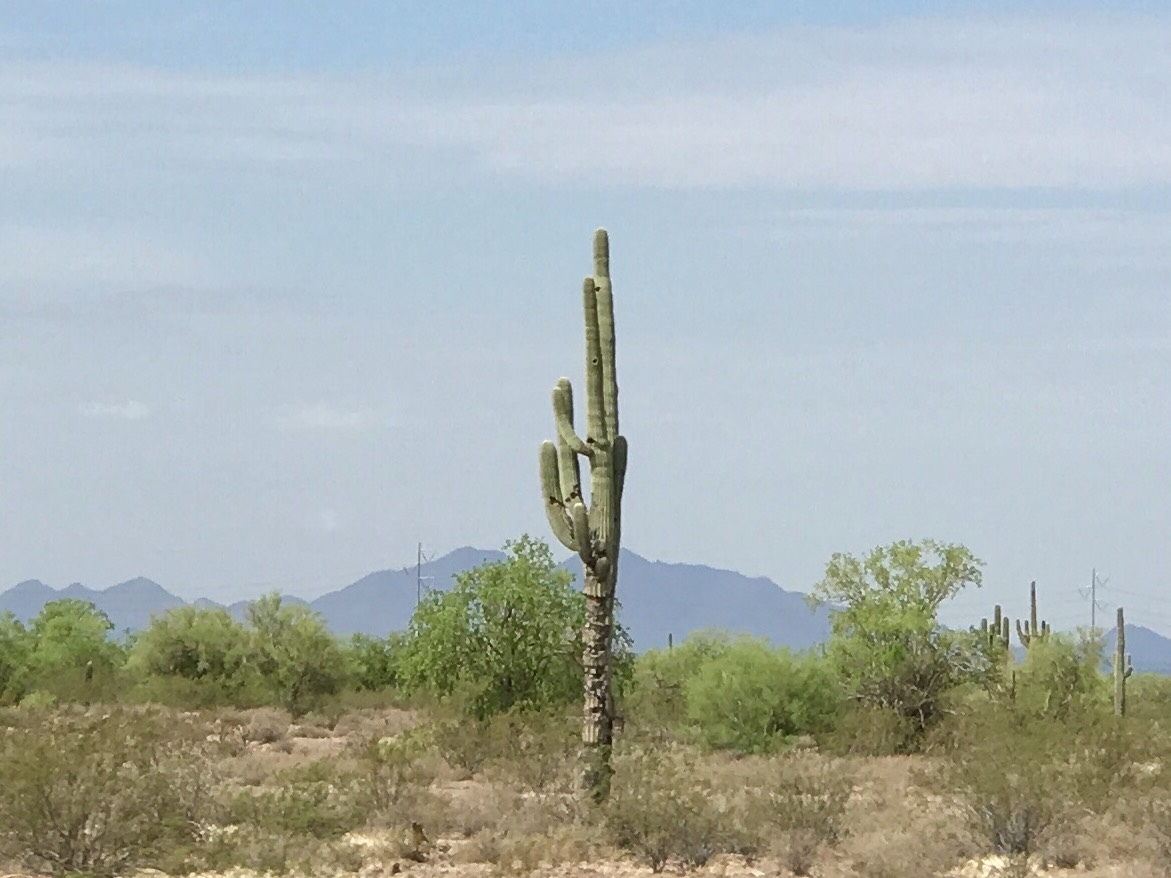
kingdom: Plantae
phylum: Tracheophyta
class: Magnoliopsida
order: Caryophyllales
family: Cactaceae
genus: Carnegiea
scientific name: Carnegiea gigantea
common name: Saguaro
